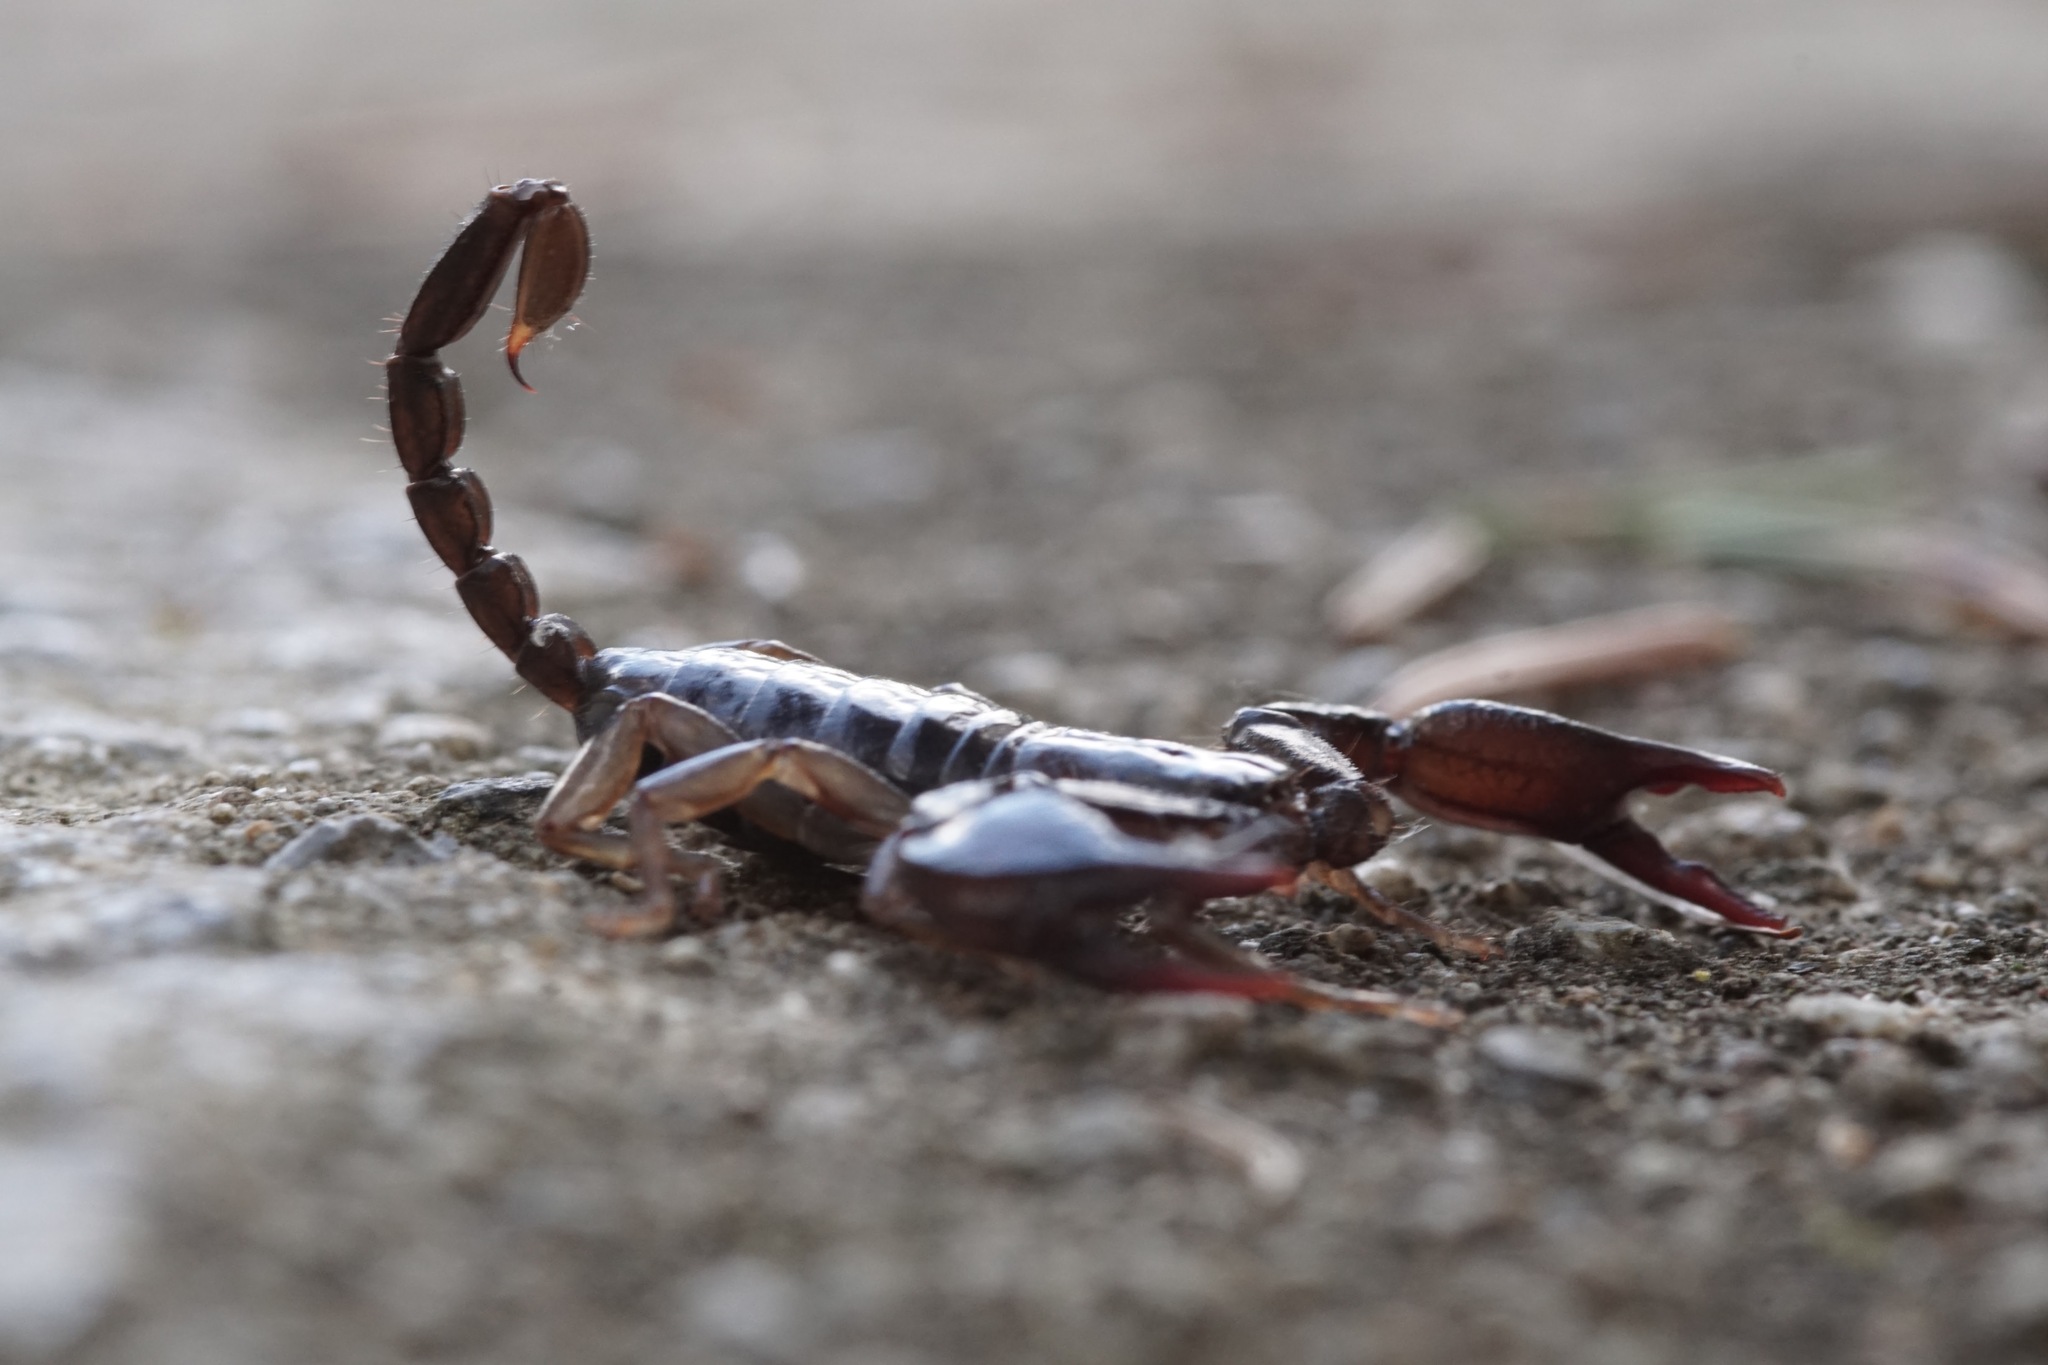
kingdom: Animalia
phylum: Arthropoda
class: Arachnida
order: Scorpiones
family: Euscorpiidae
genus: Euscorpius
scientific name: Euscorpius
